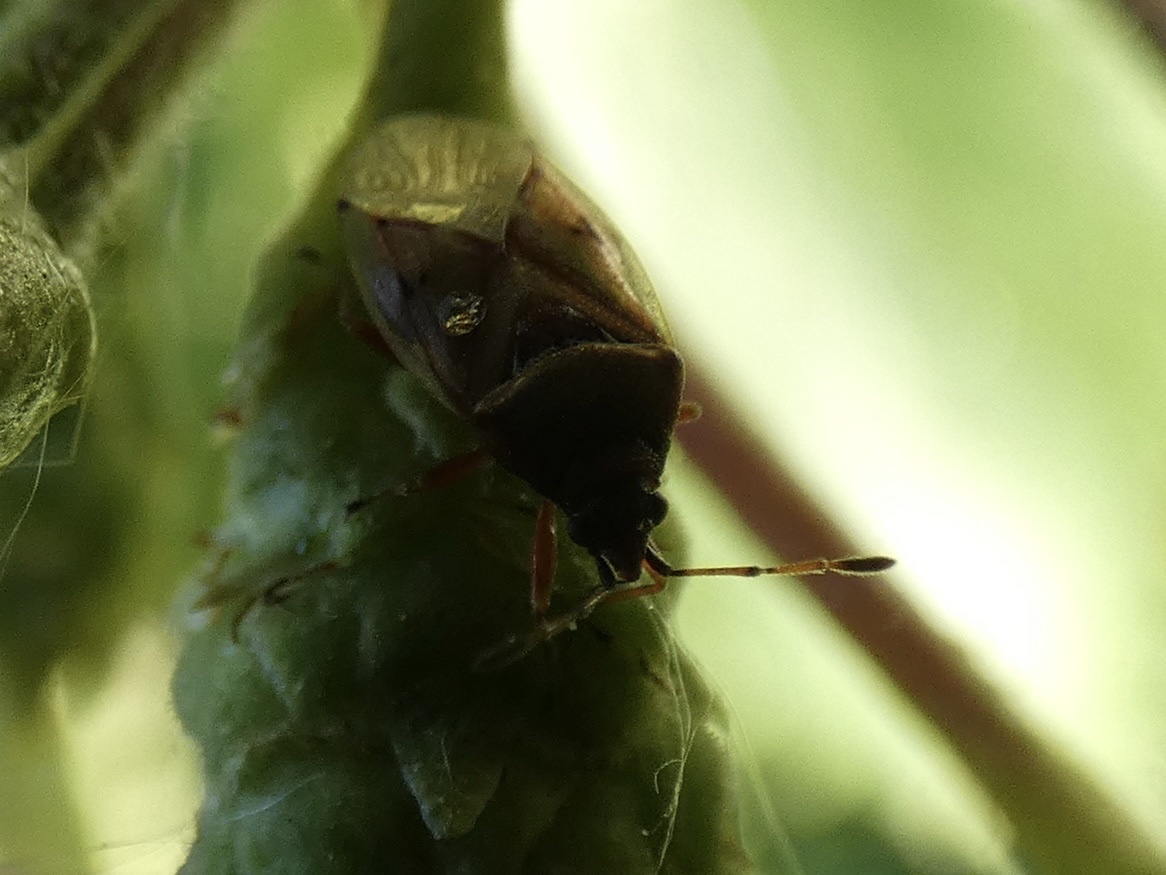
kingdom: Animalia
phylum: Arthropoda
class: Insecta
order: Hemiptera
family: Lygaeidae
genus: Kleidocerys
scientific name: Kleidocerys resedae
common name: Birch catkin bug
